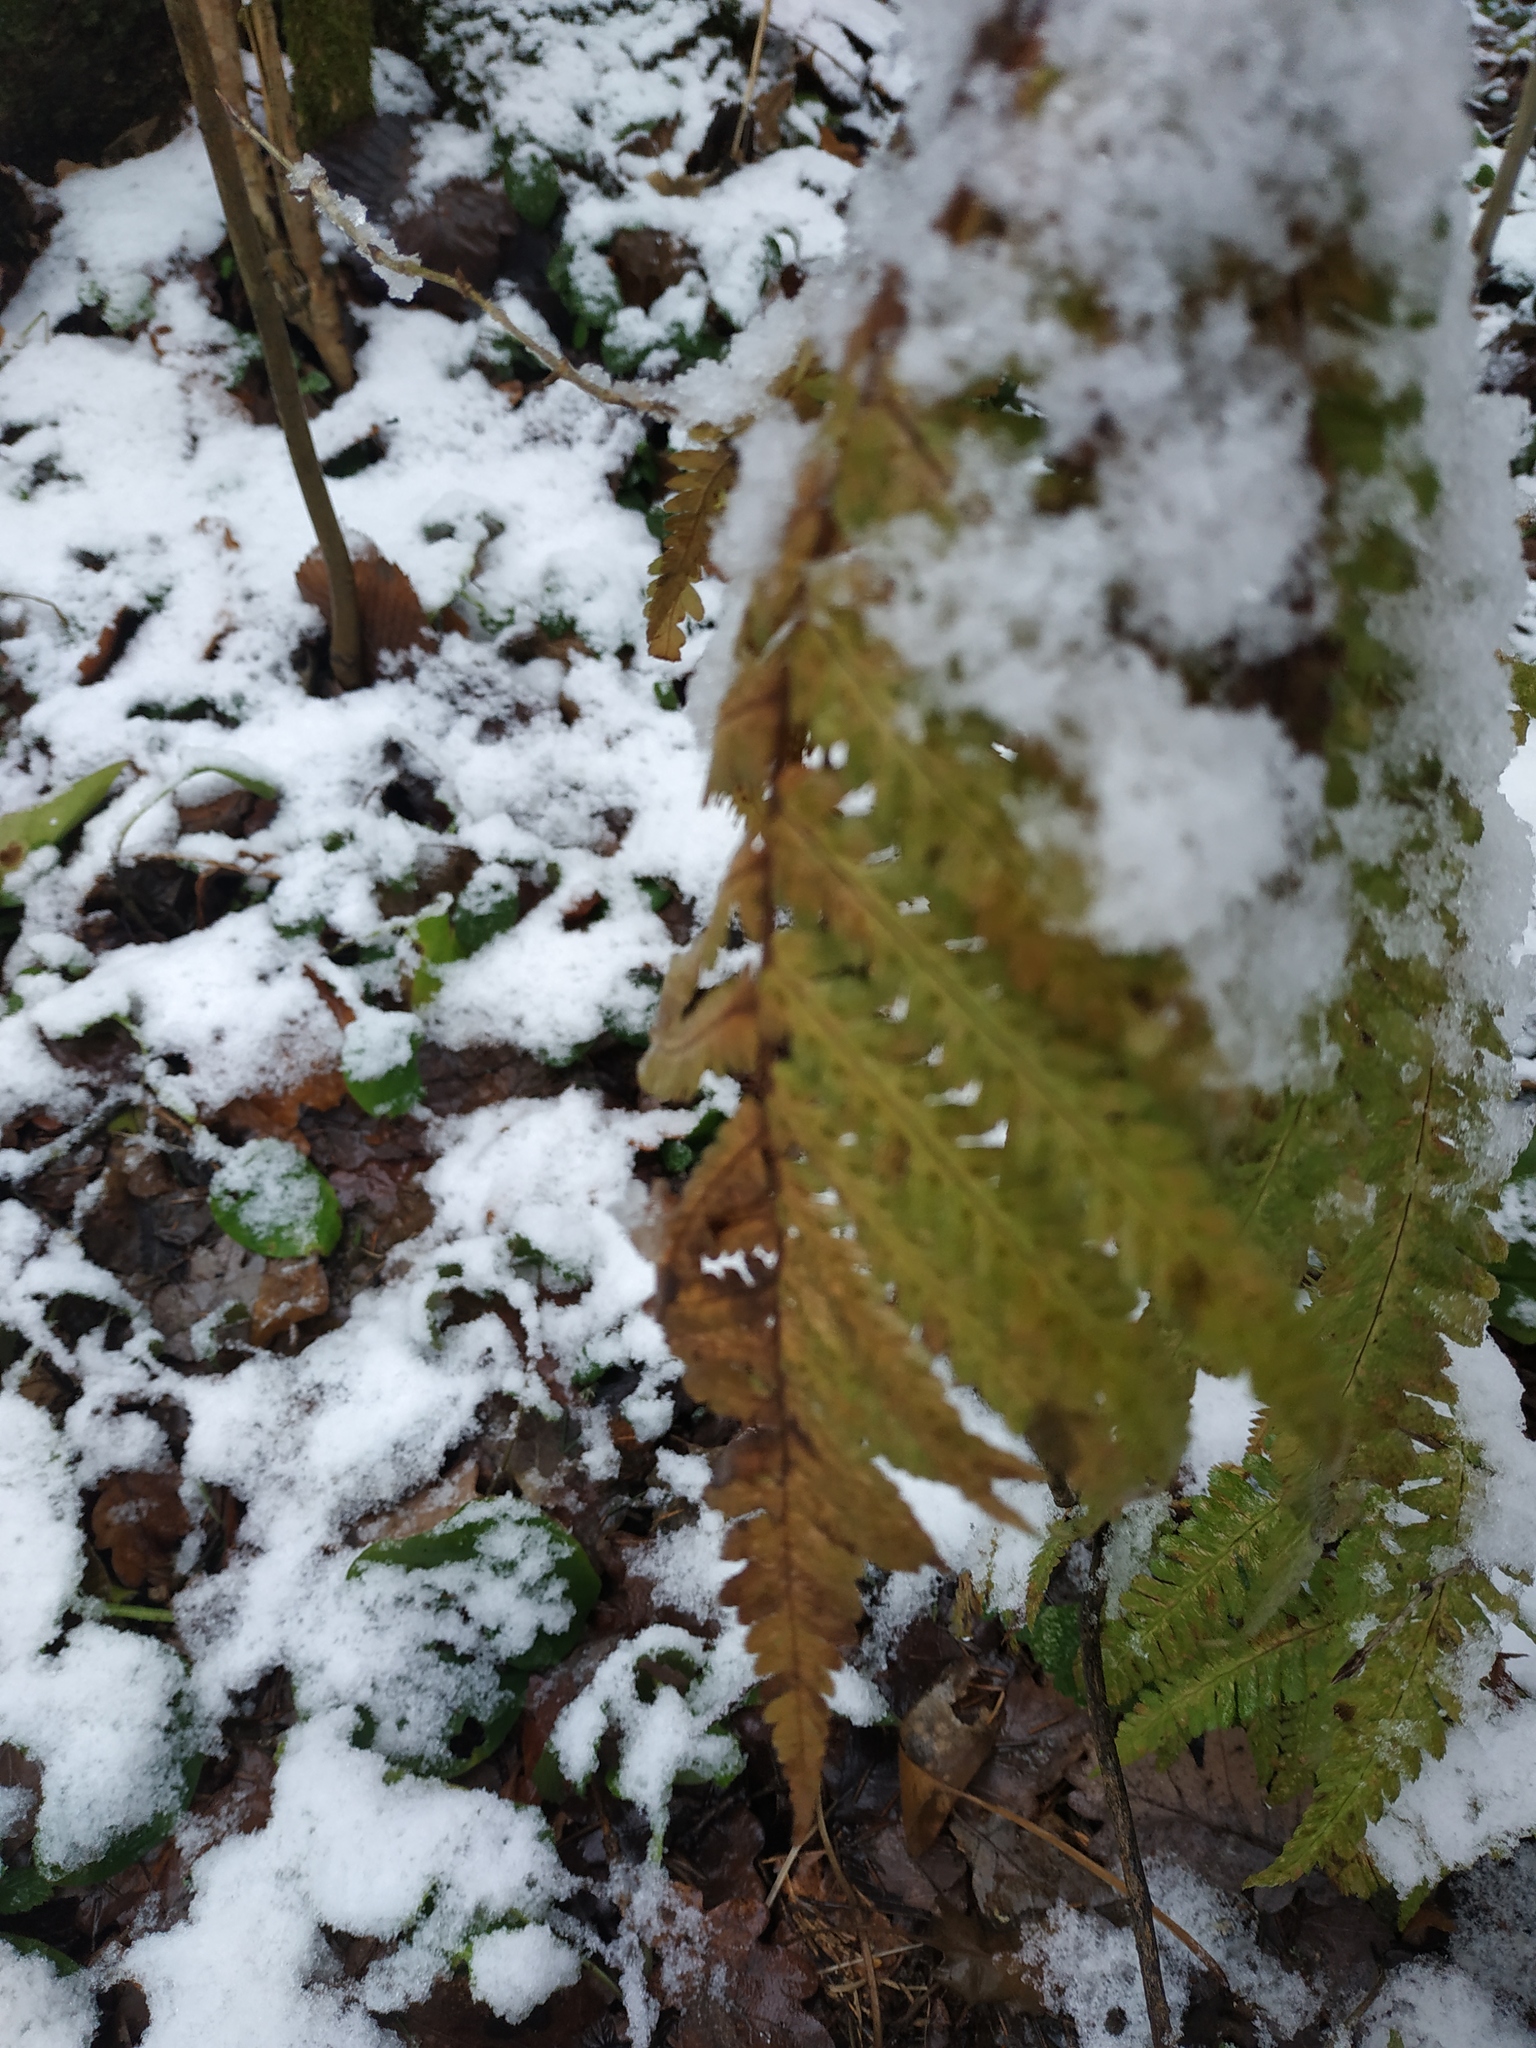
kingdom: Plantae
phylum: Tracheophyta
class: Polypodiopsida
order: Polypodiales
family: Dryopteridaceae
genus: Dryopteris
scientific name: Dryopteris filix-mas
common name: Male fern
